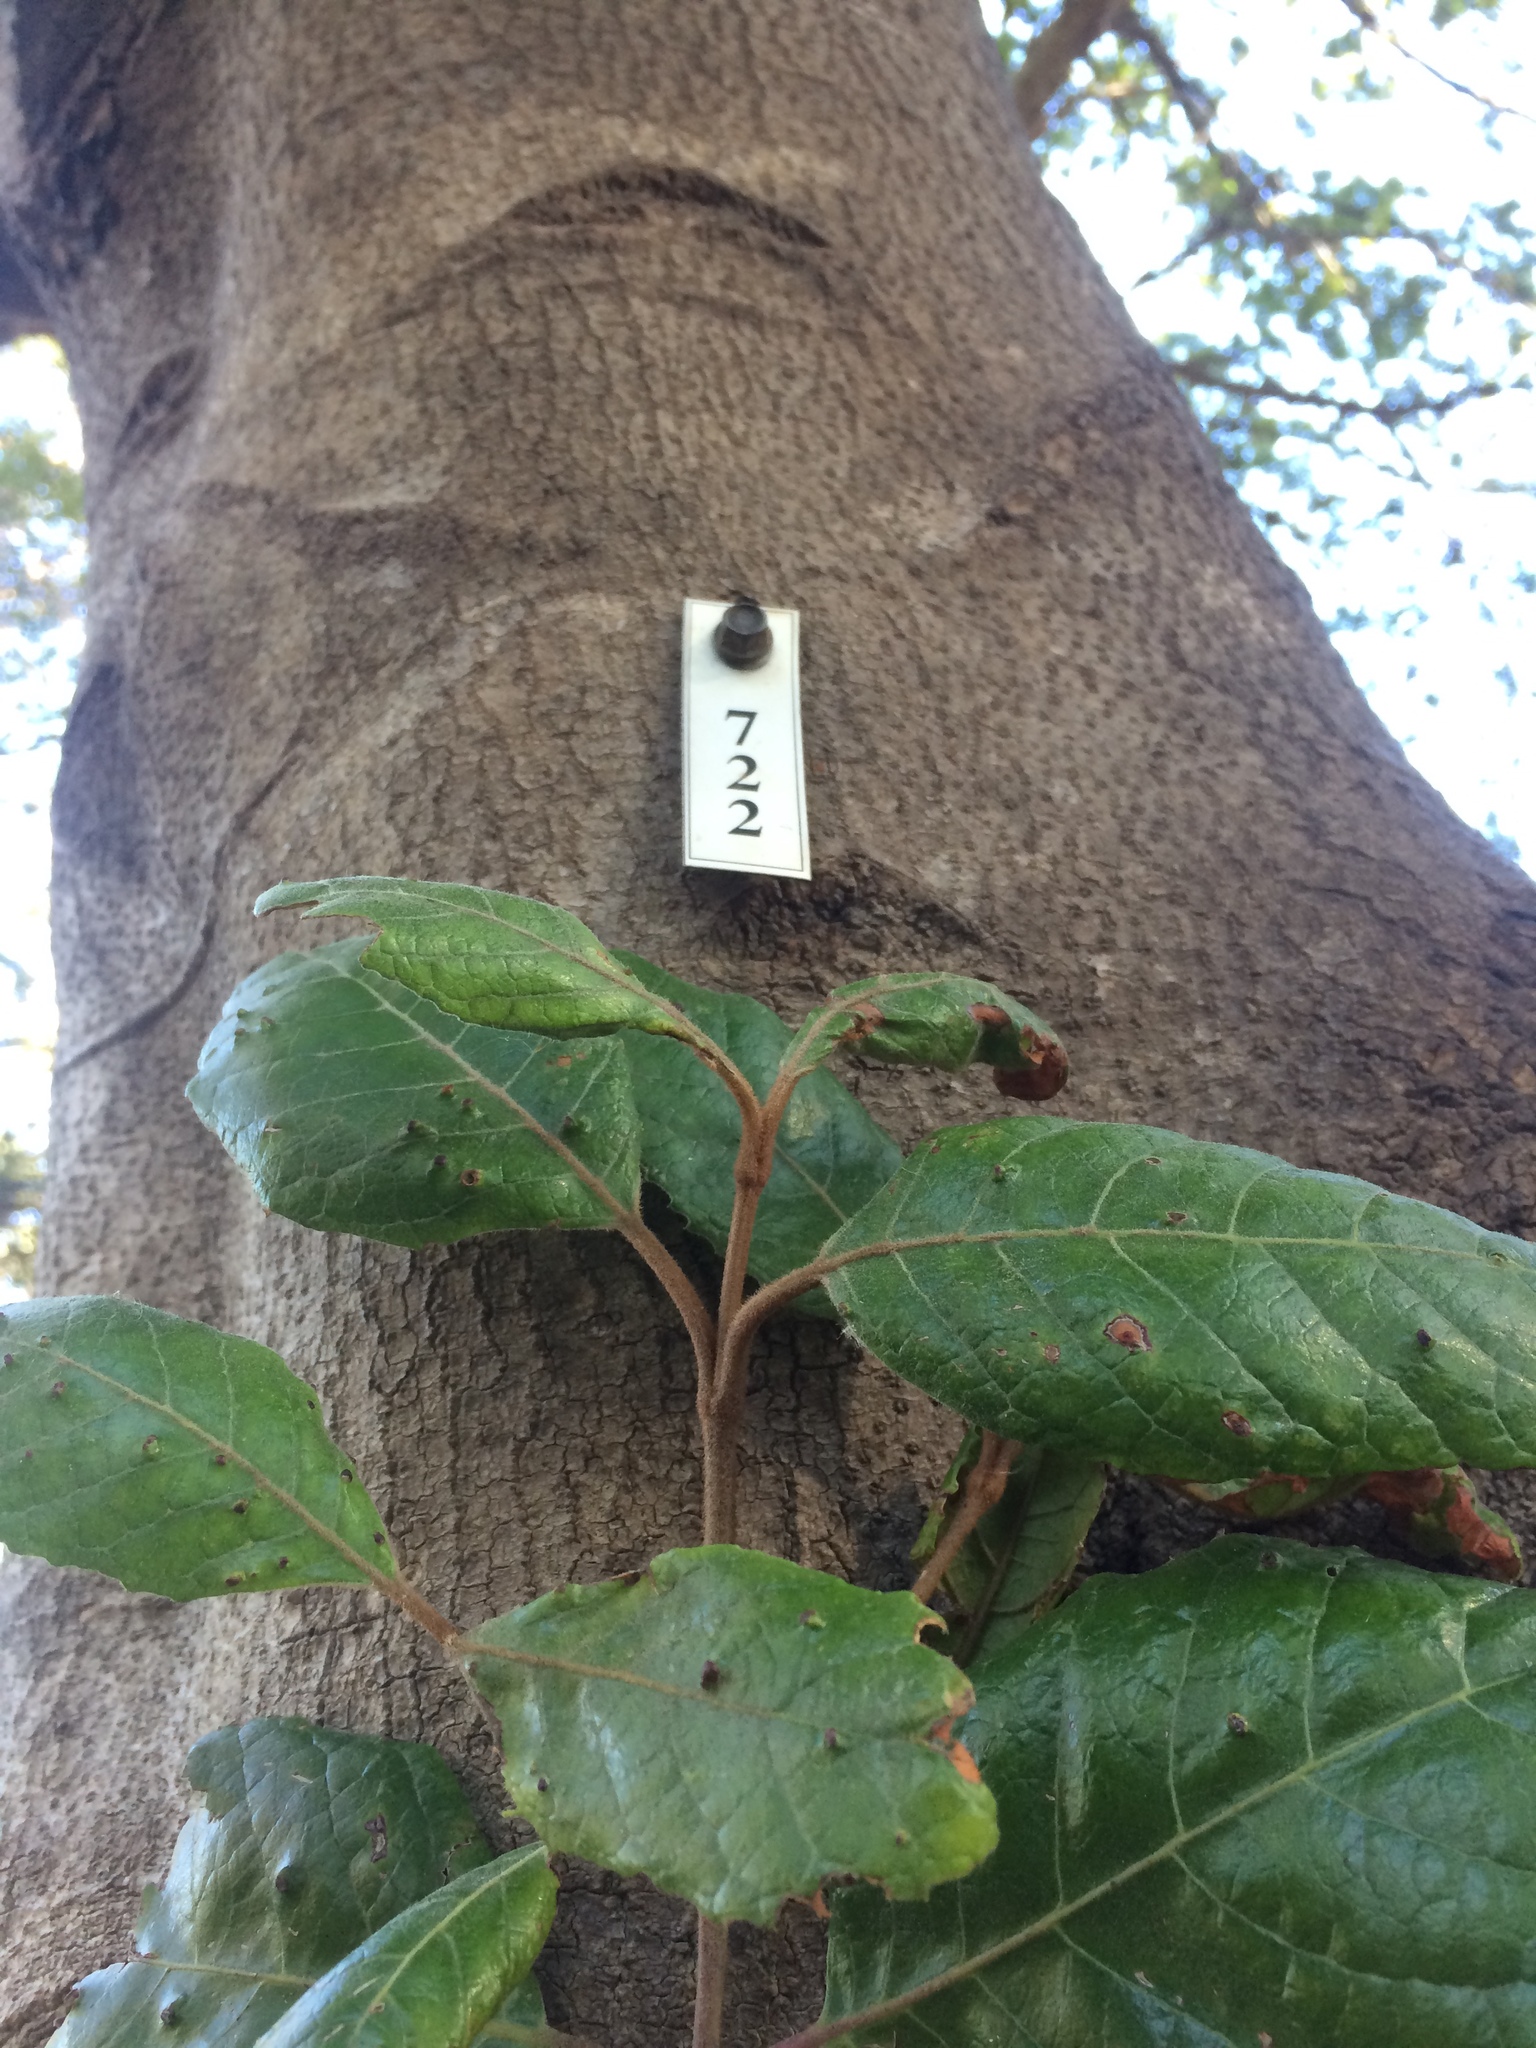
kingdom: Plantae
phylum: Tracheophyta
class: Magnoliopsida
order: Cornales
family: Curtisiaceae
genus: Curtisia
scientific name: Curtisia dentata
